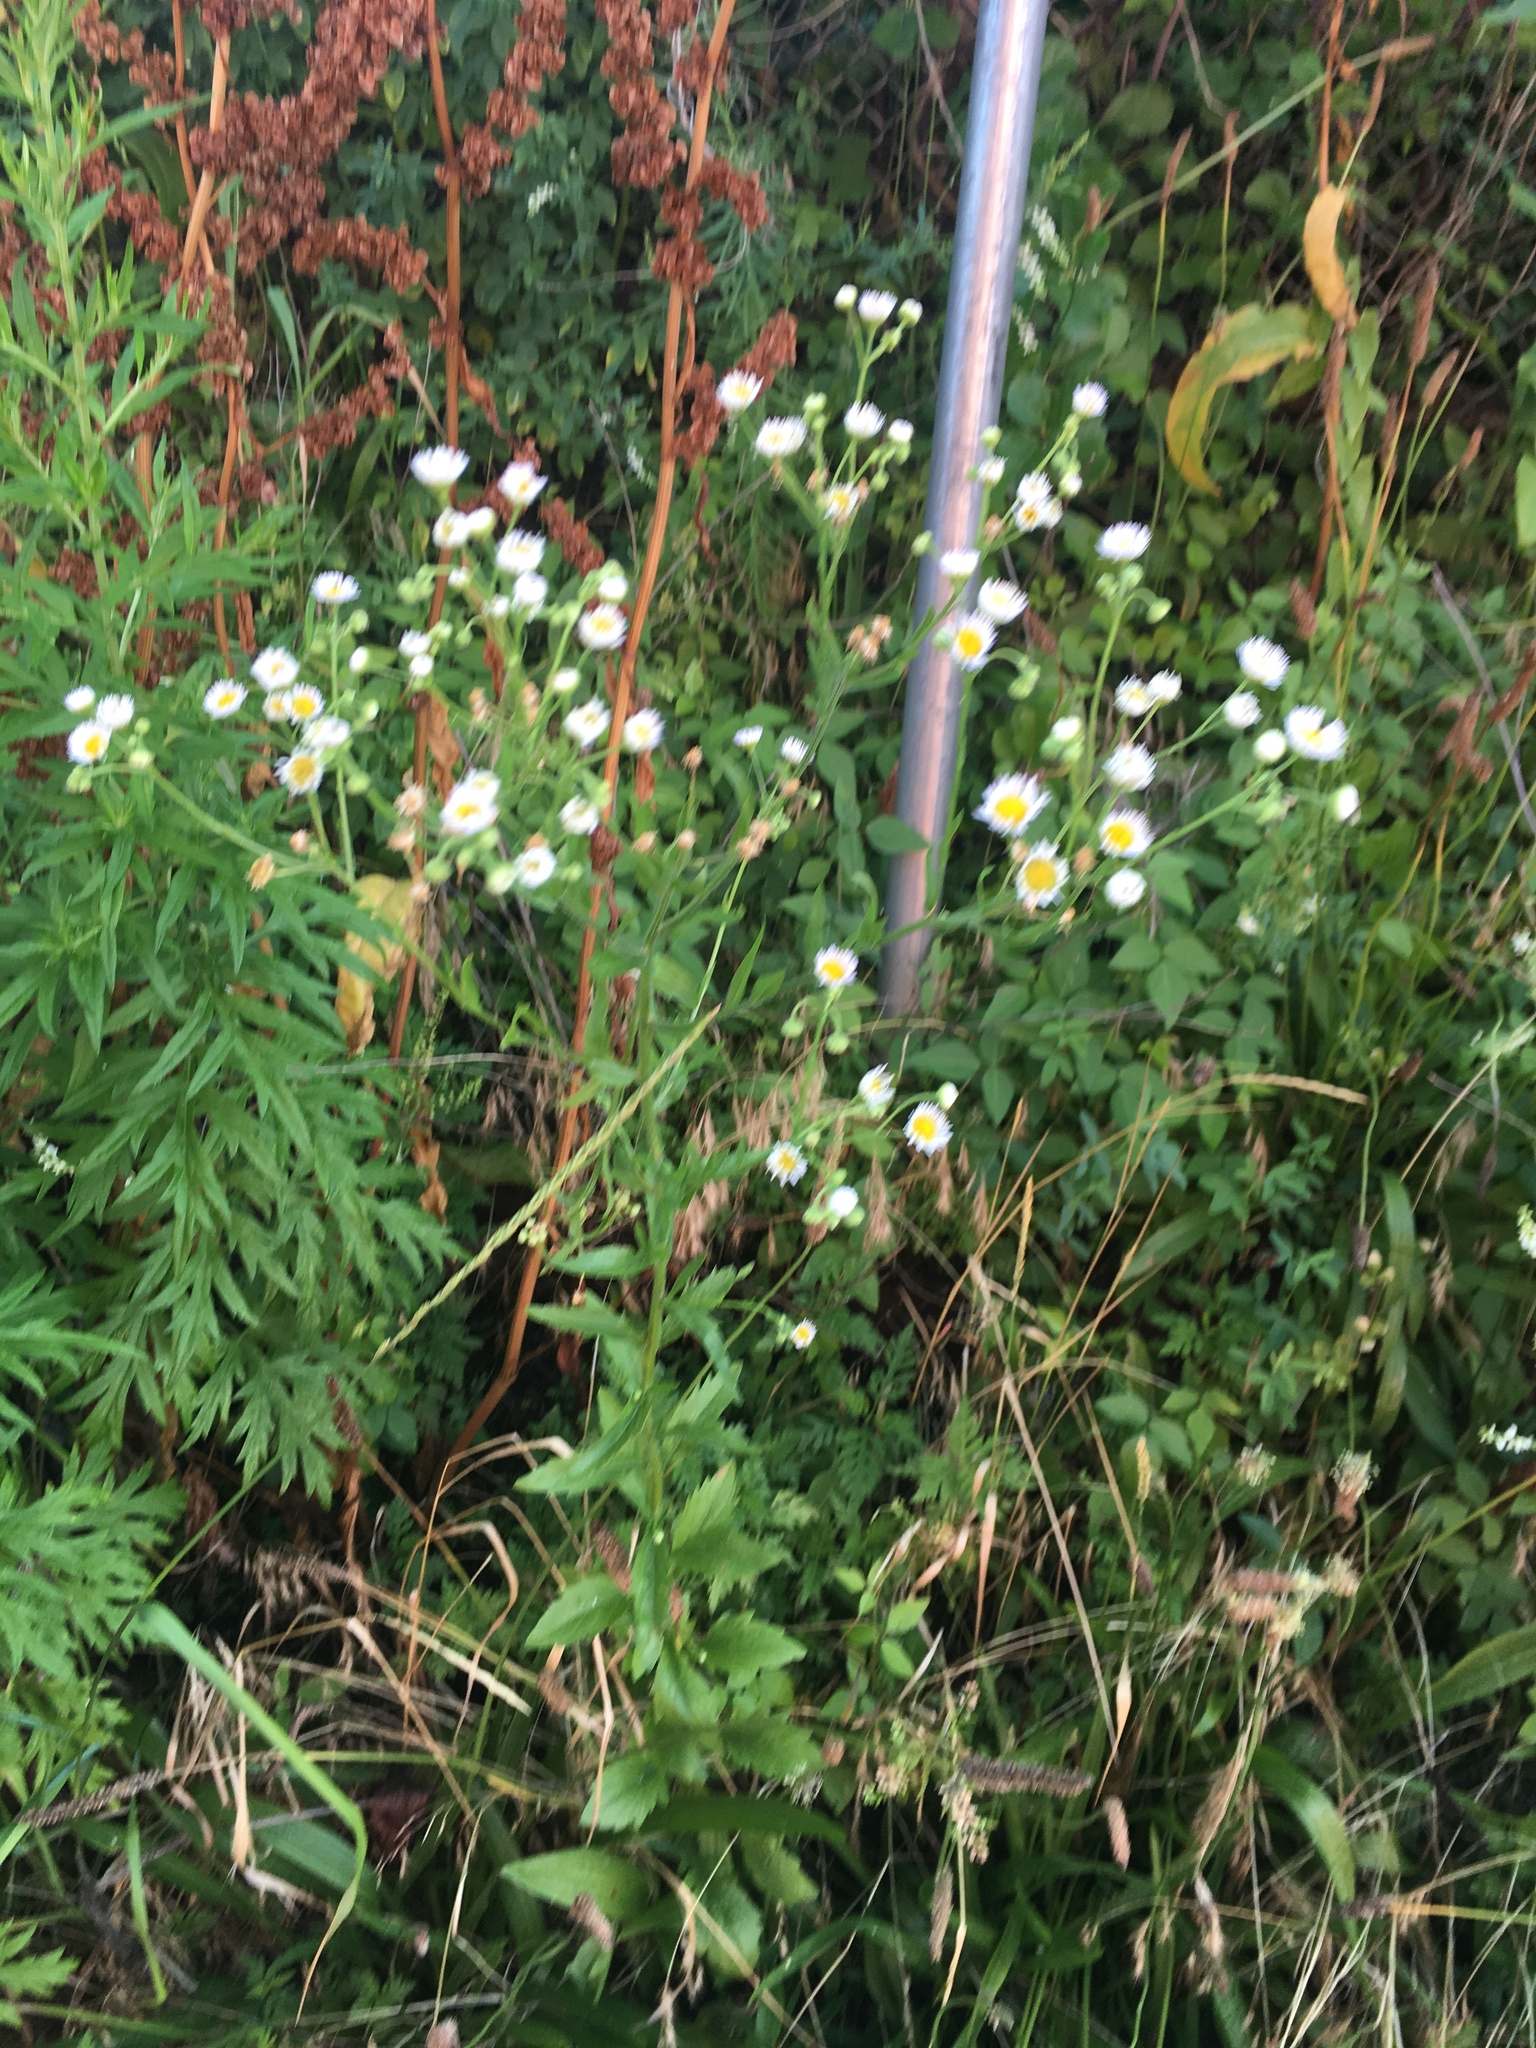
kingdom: Plantae
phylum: Tracheophyta
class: Magnoliopsida
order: Asterales
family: Asteraceae
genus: Erigeron
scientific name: Erigeron annuus
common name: Tall fleabane
